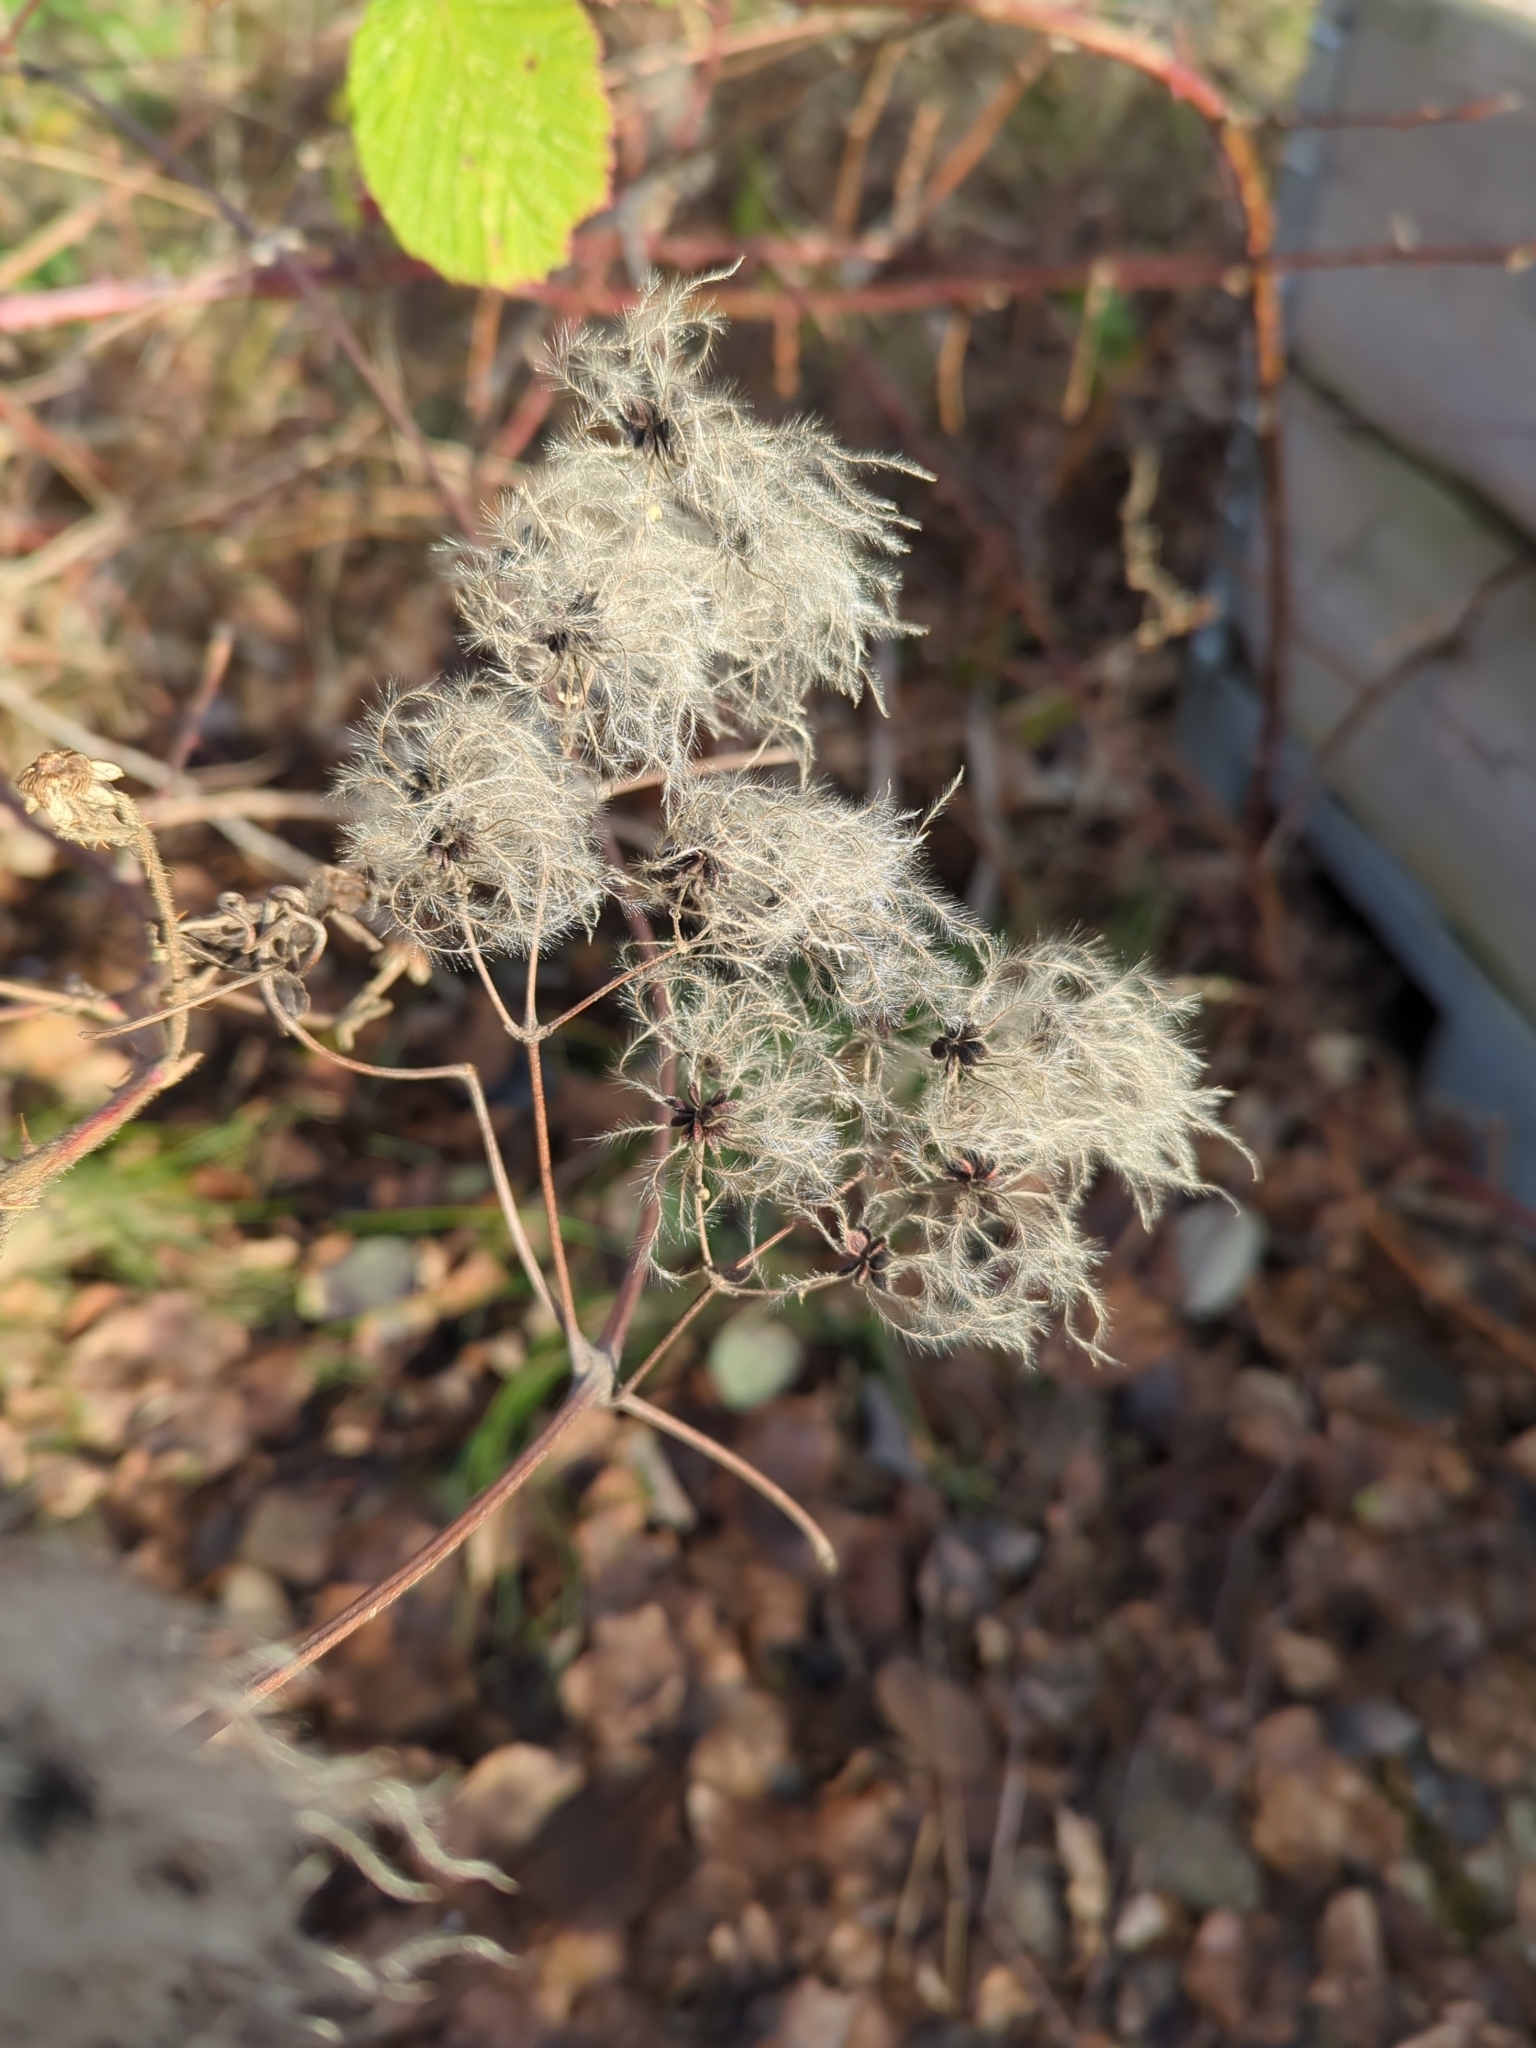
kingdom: Plantae
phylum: Tracheophyta
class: Magnoliopsida
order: Ranunculales
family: Ranunculaceae
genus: Clematis
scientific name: Clematis vitalba
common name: Evergreen clematis
